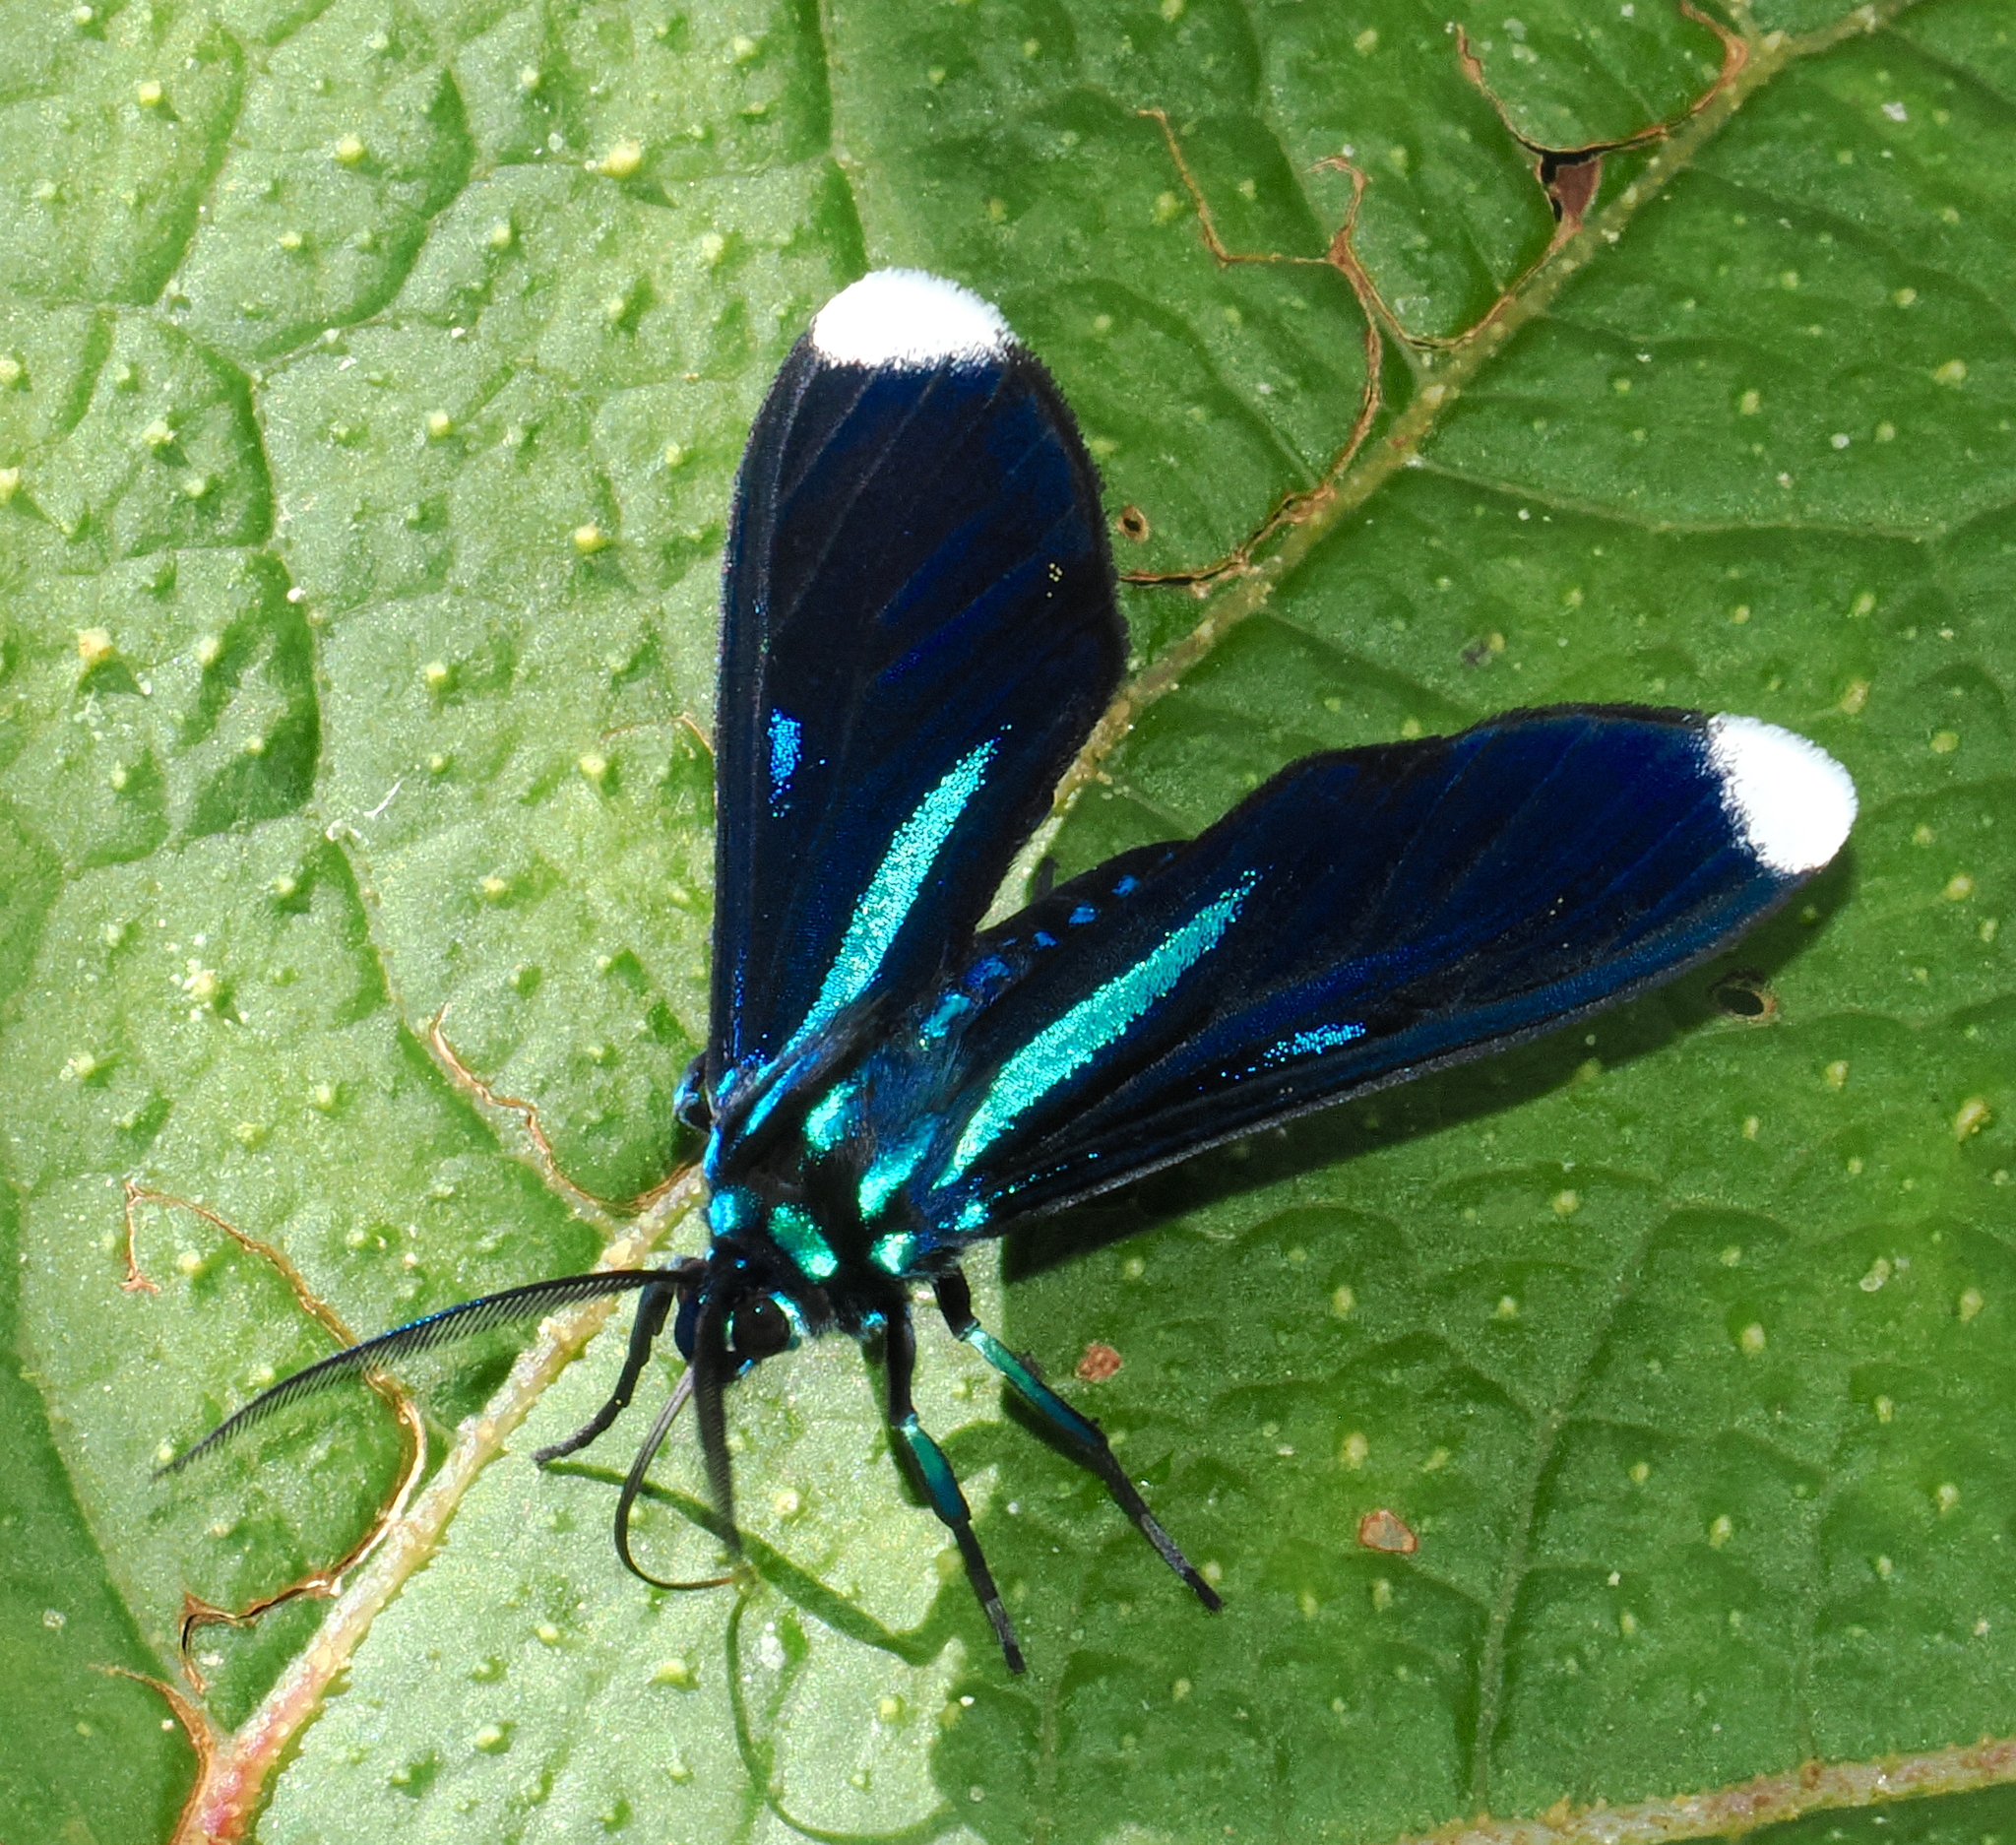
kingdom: Animalia
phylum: Arthropoda
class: Insecta
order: Lepidoptera
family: Erebidae
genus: Uranophora
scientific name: Uranophora albiplaga
